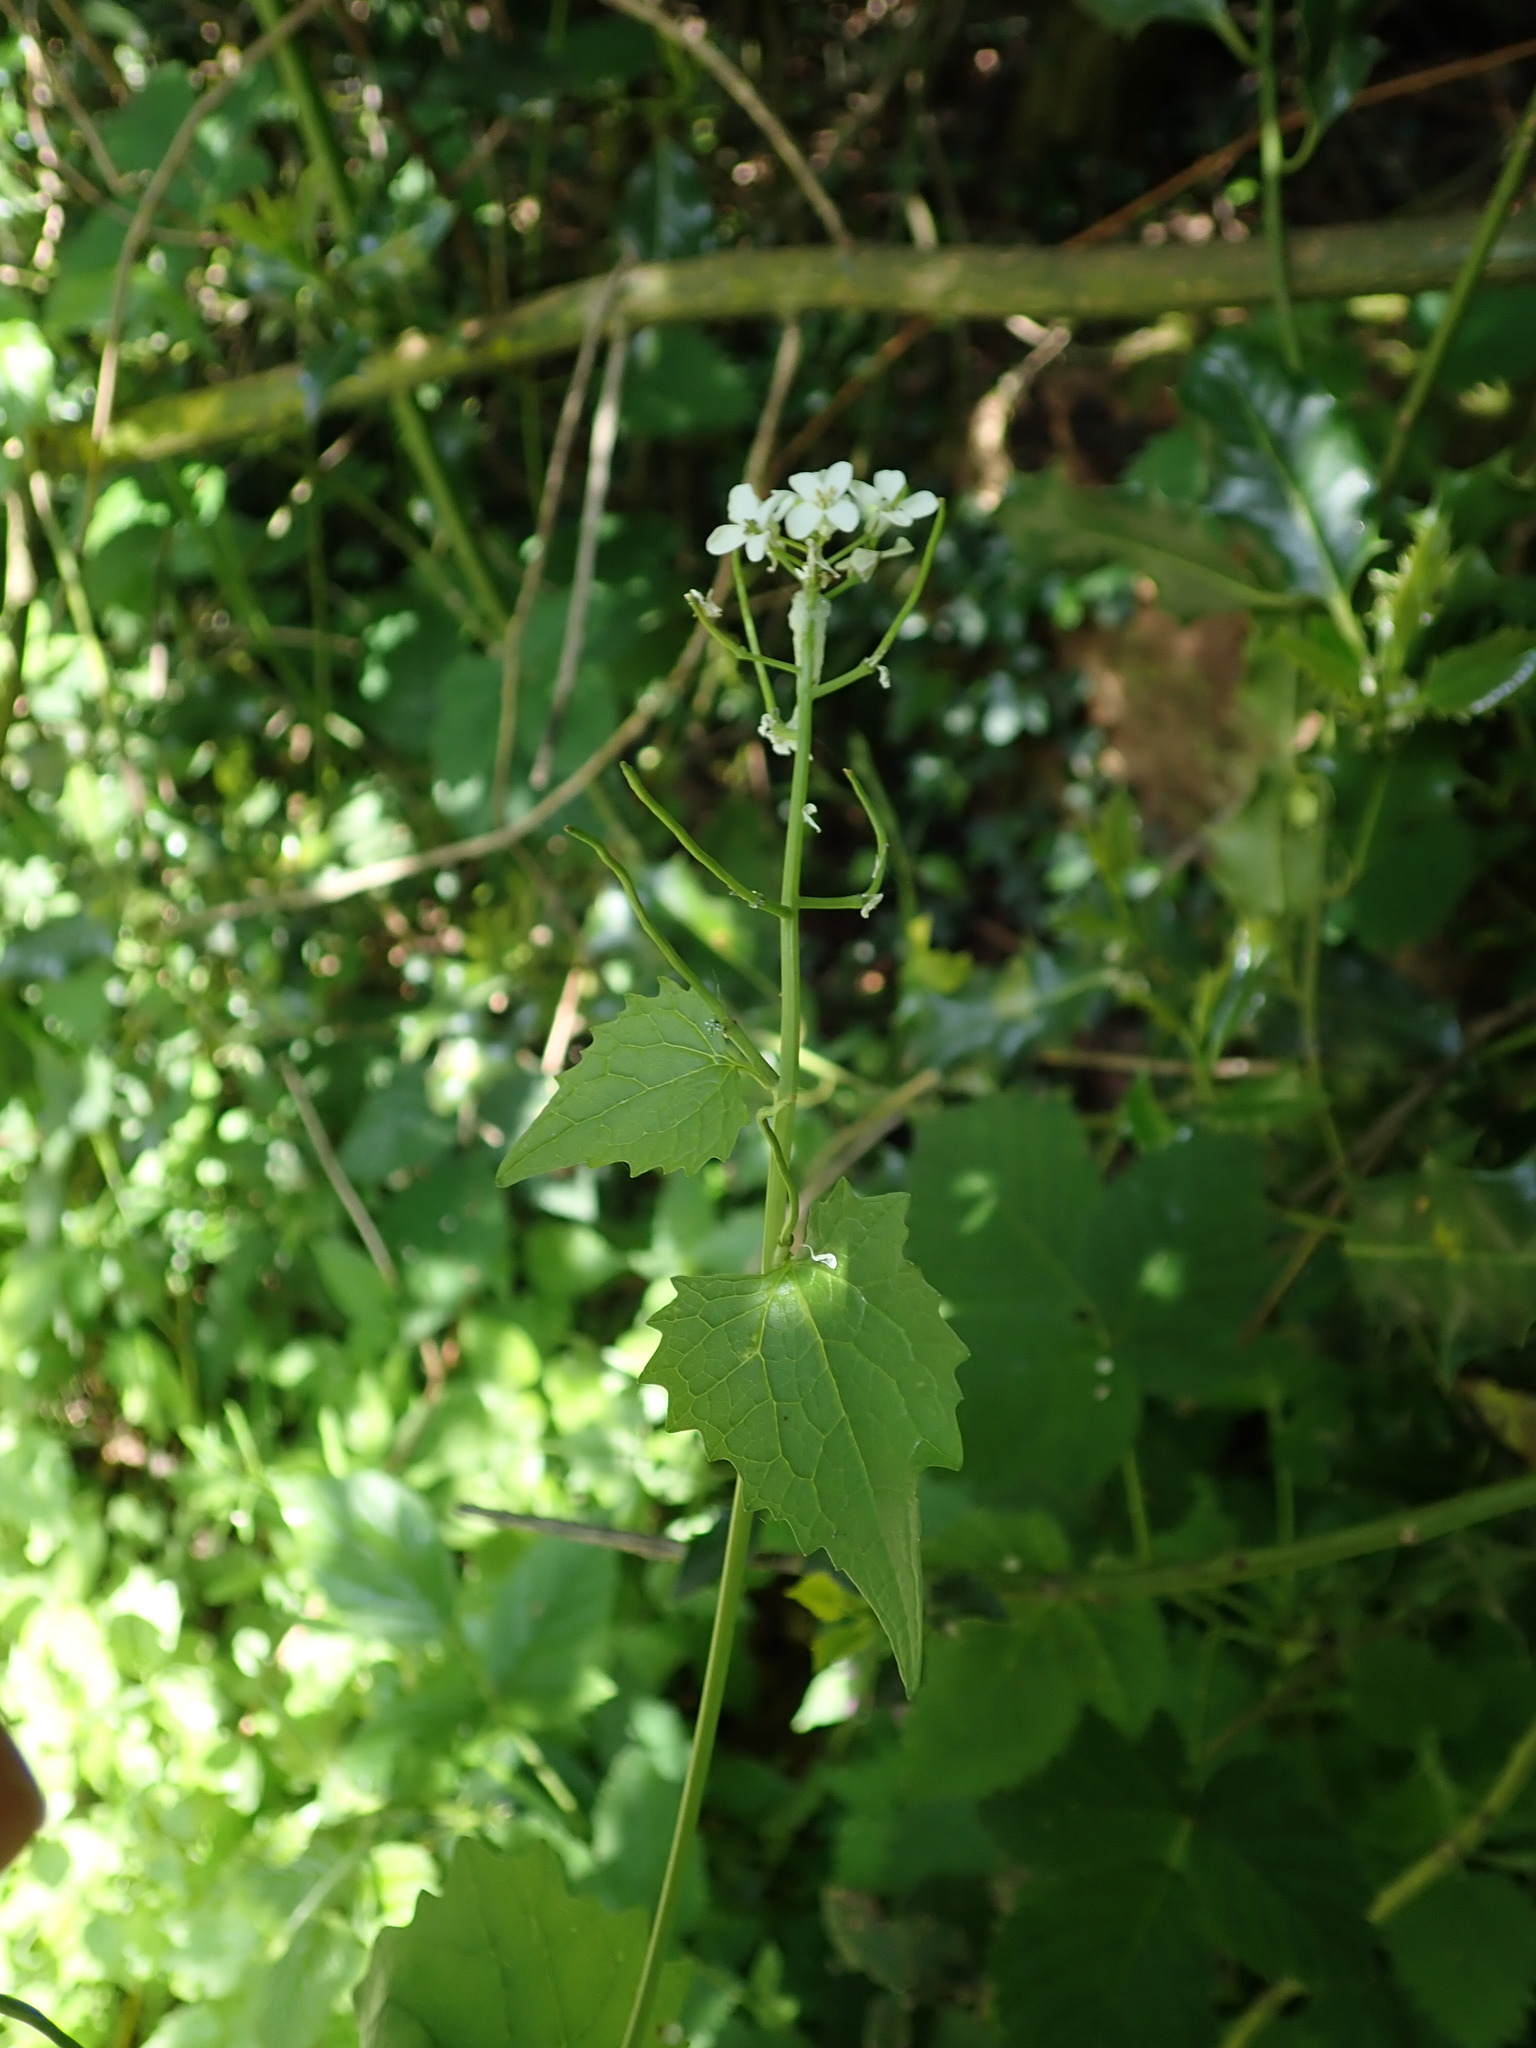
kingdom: Plantae
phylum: Tracheophyta
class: Magnoliopsida
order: Brassicales
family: Brassicaceae
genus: Alliaria
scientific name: Alliaria petiolata
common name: Garlic mustard
